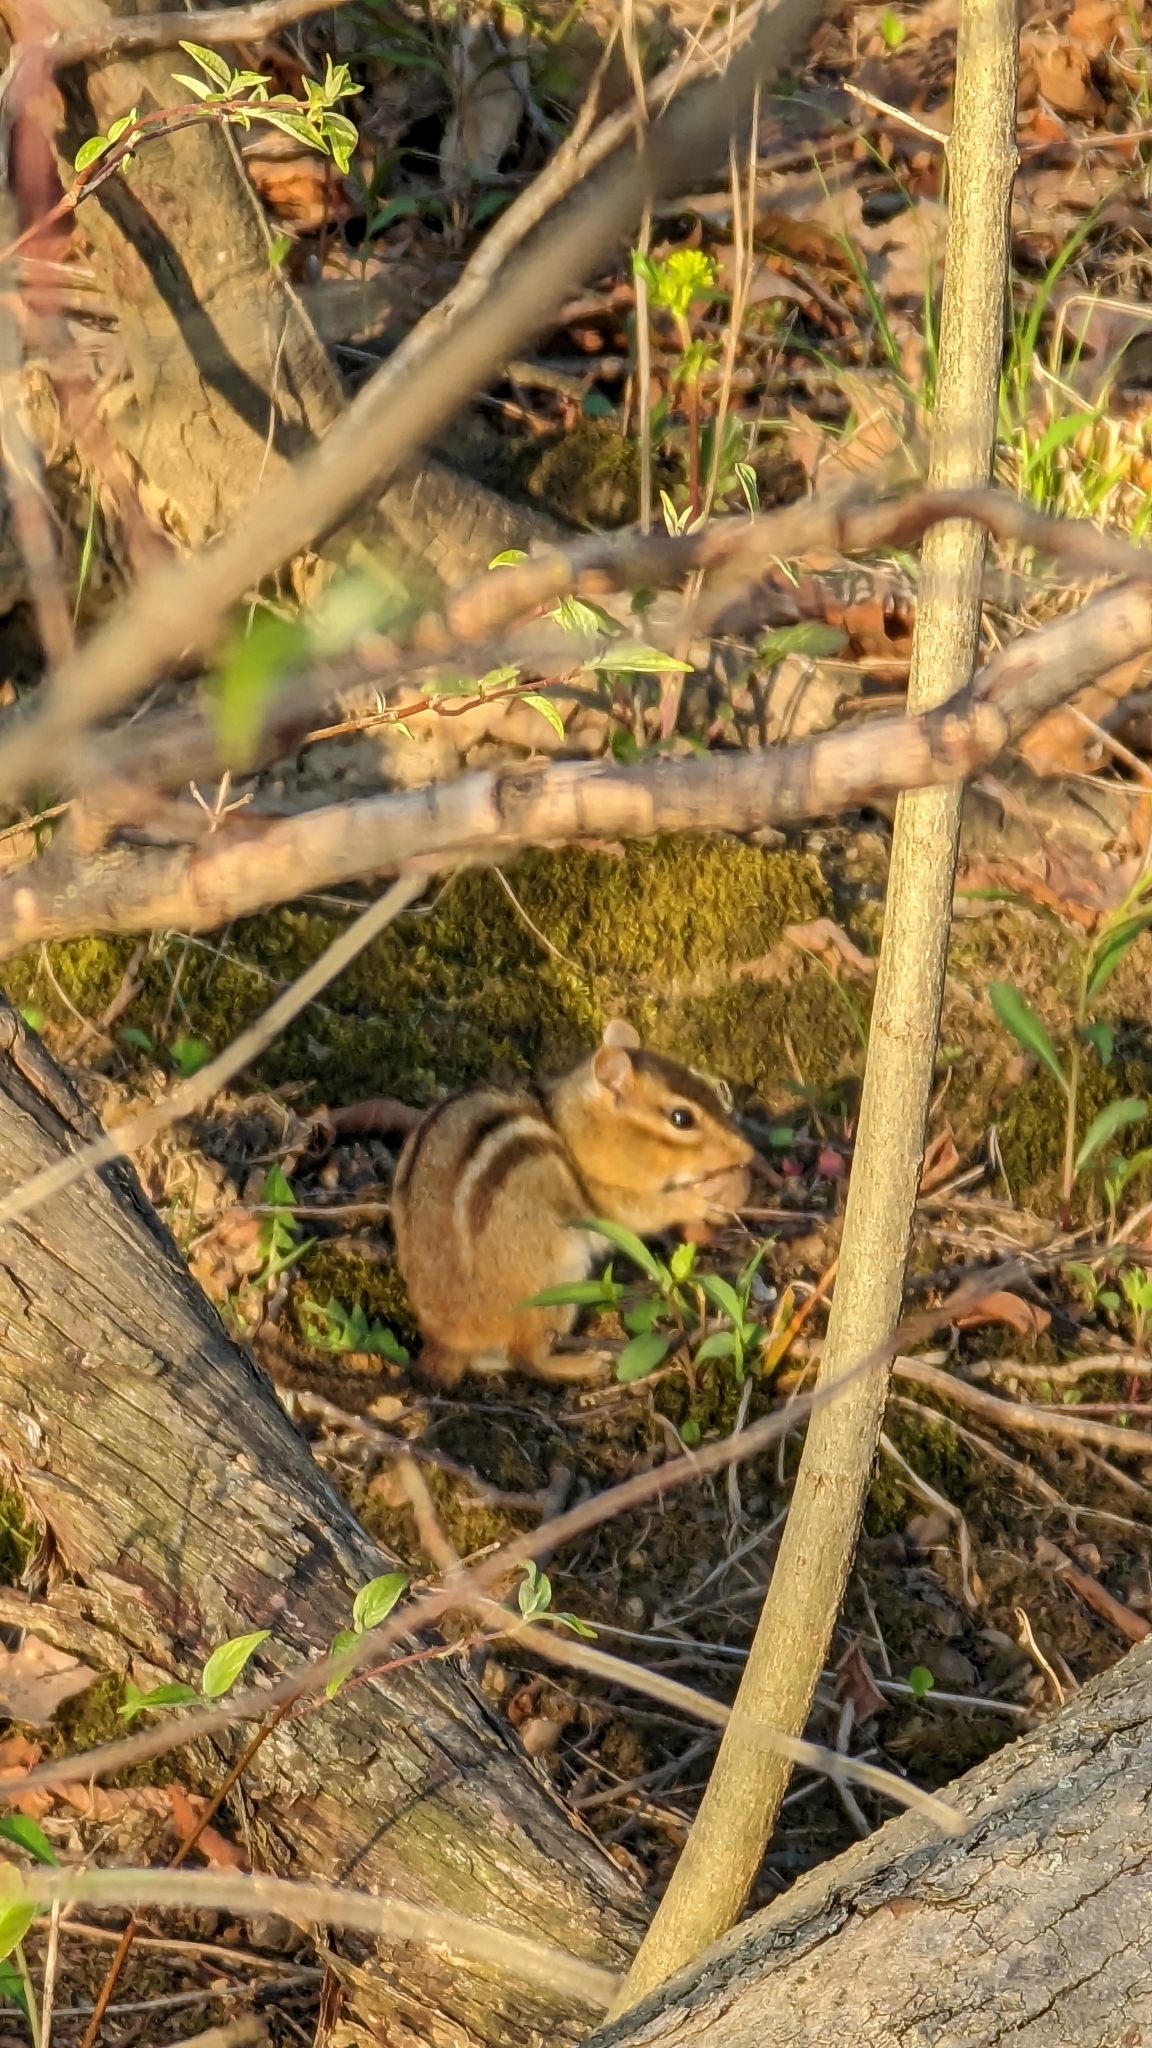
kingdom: Animalia
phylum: Chordata
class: Mammalia
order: Rodentia
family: Sciuridae
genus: Tamias
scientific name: Tamias striatus
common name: Eastern chipmunk
